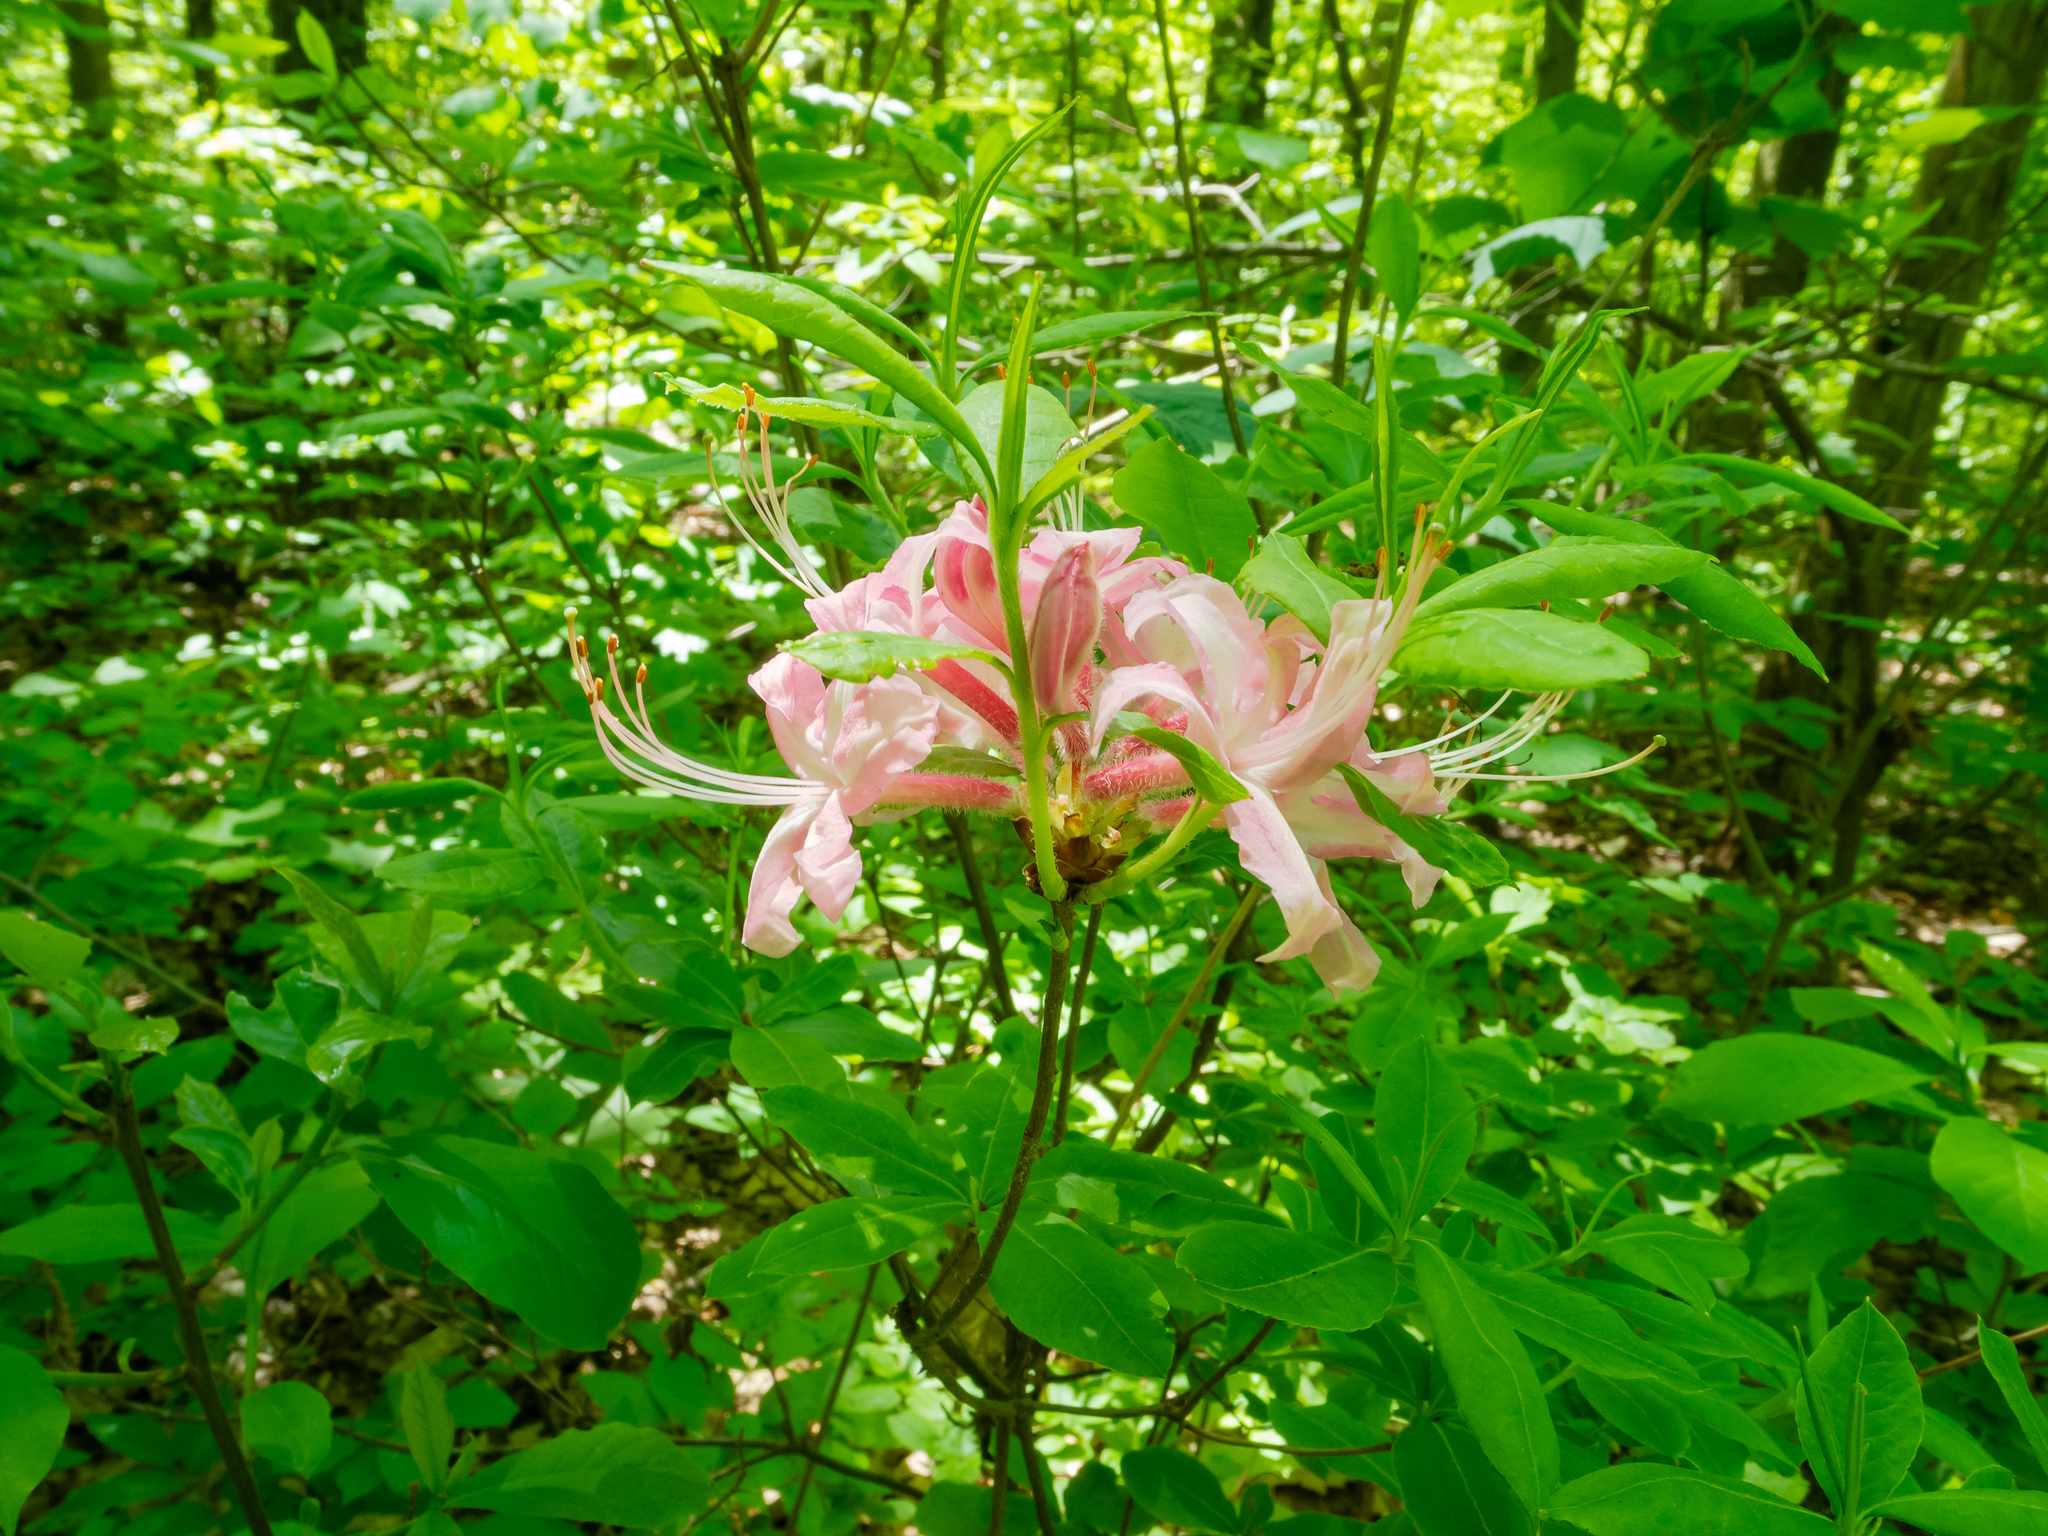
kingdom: Plantae
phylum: Tracheophyta
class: Magnoliopsida
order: Ericales
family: Ericaceae
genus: Rhododendron
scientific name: Rhododendron periclymenoides
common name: Election-pink
